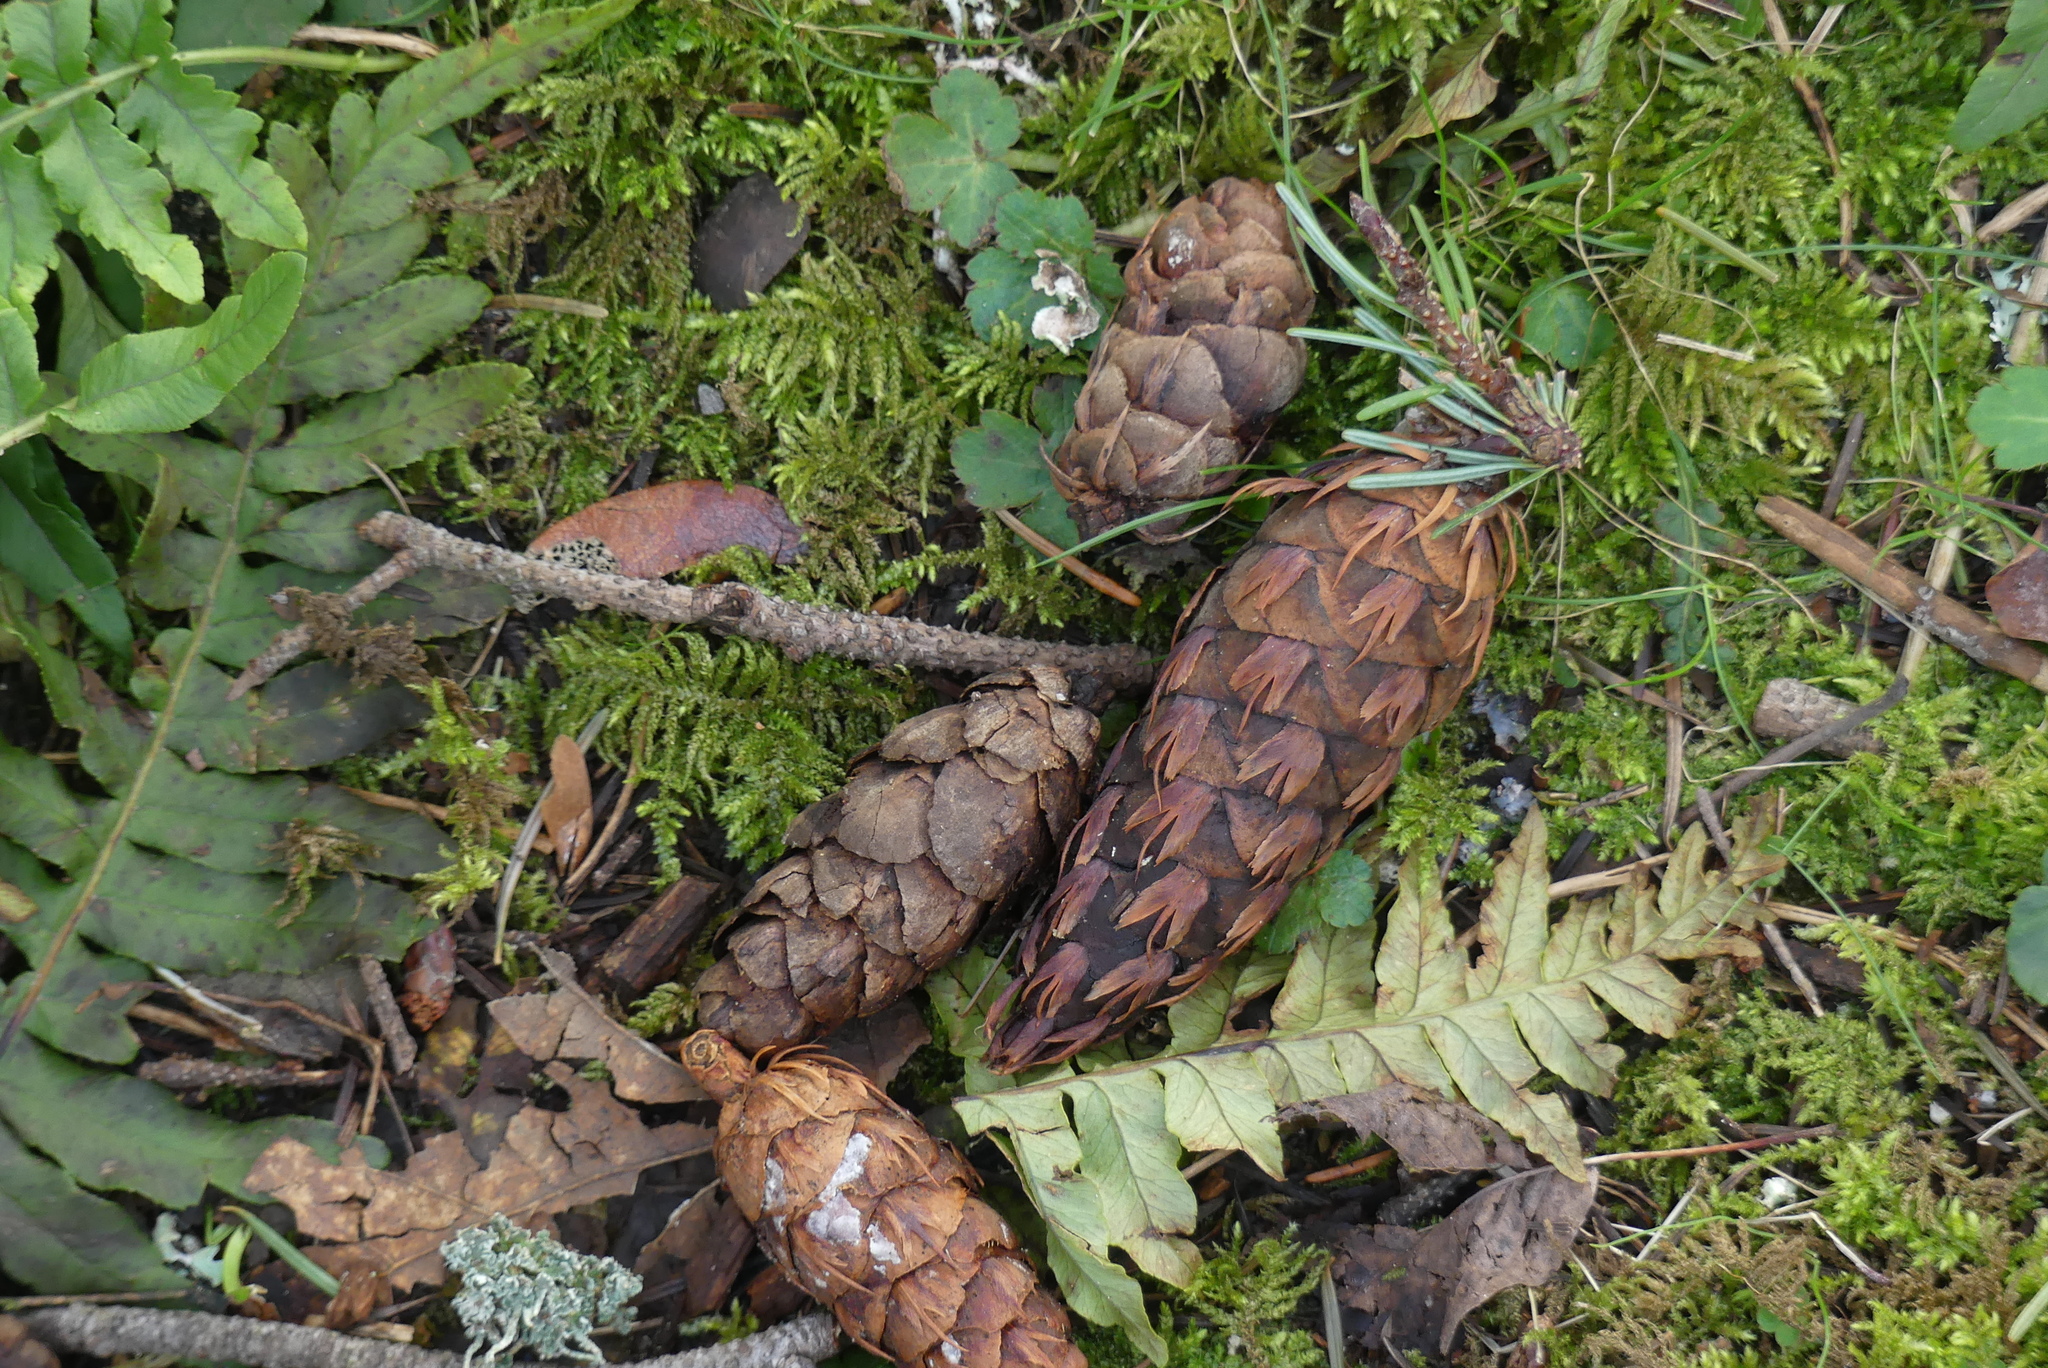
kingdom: Plantae
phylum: Tracheophyta
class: Pinopsida
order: Pinales
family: Pinaceae
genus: Pseudotsuga
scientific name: Pseudotsuga menziesii
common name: Douglas fir
